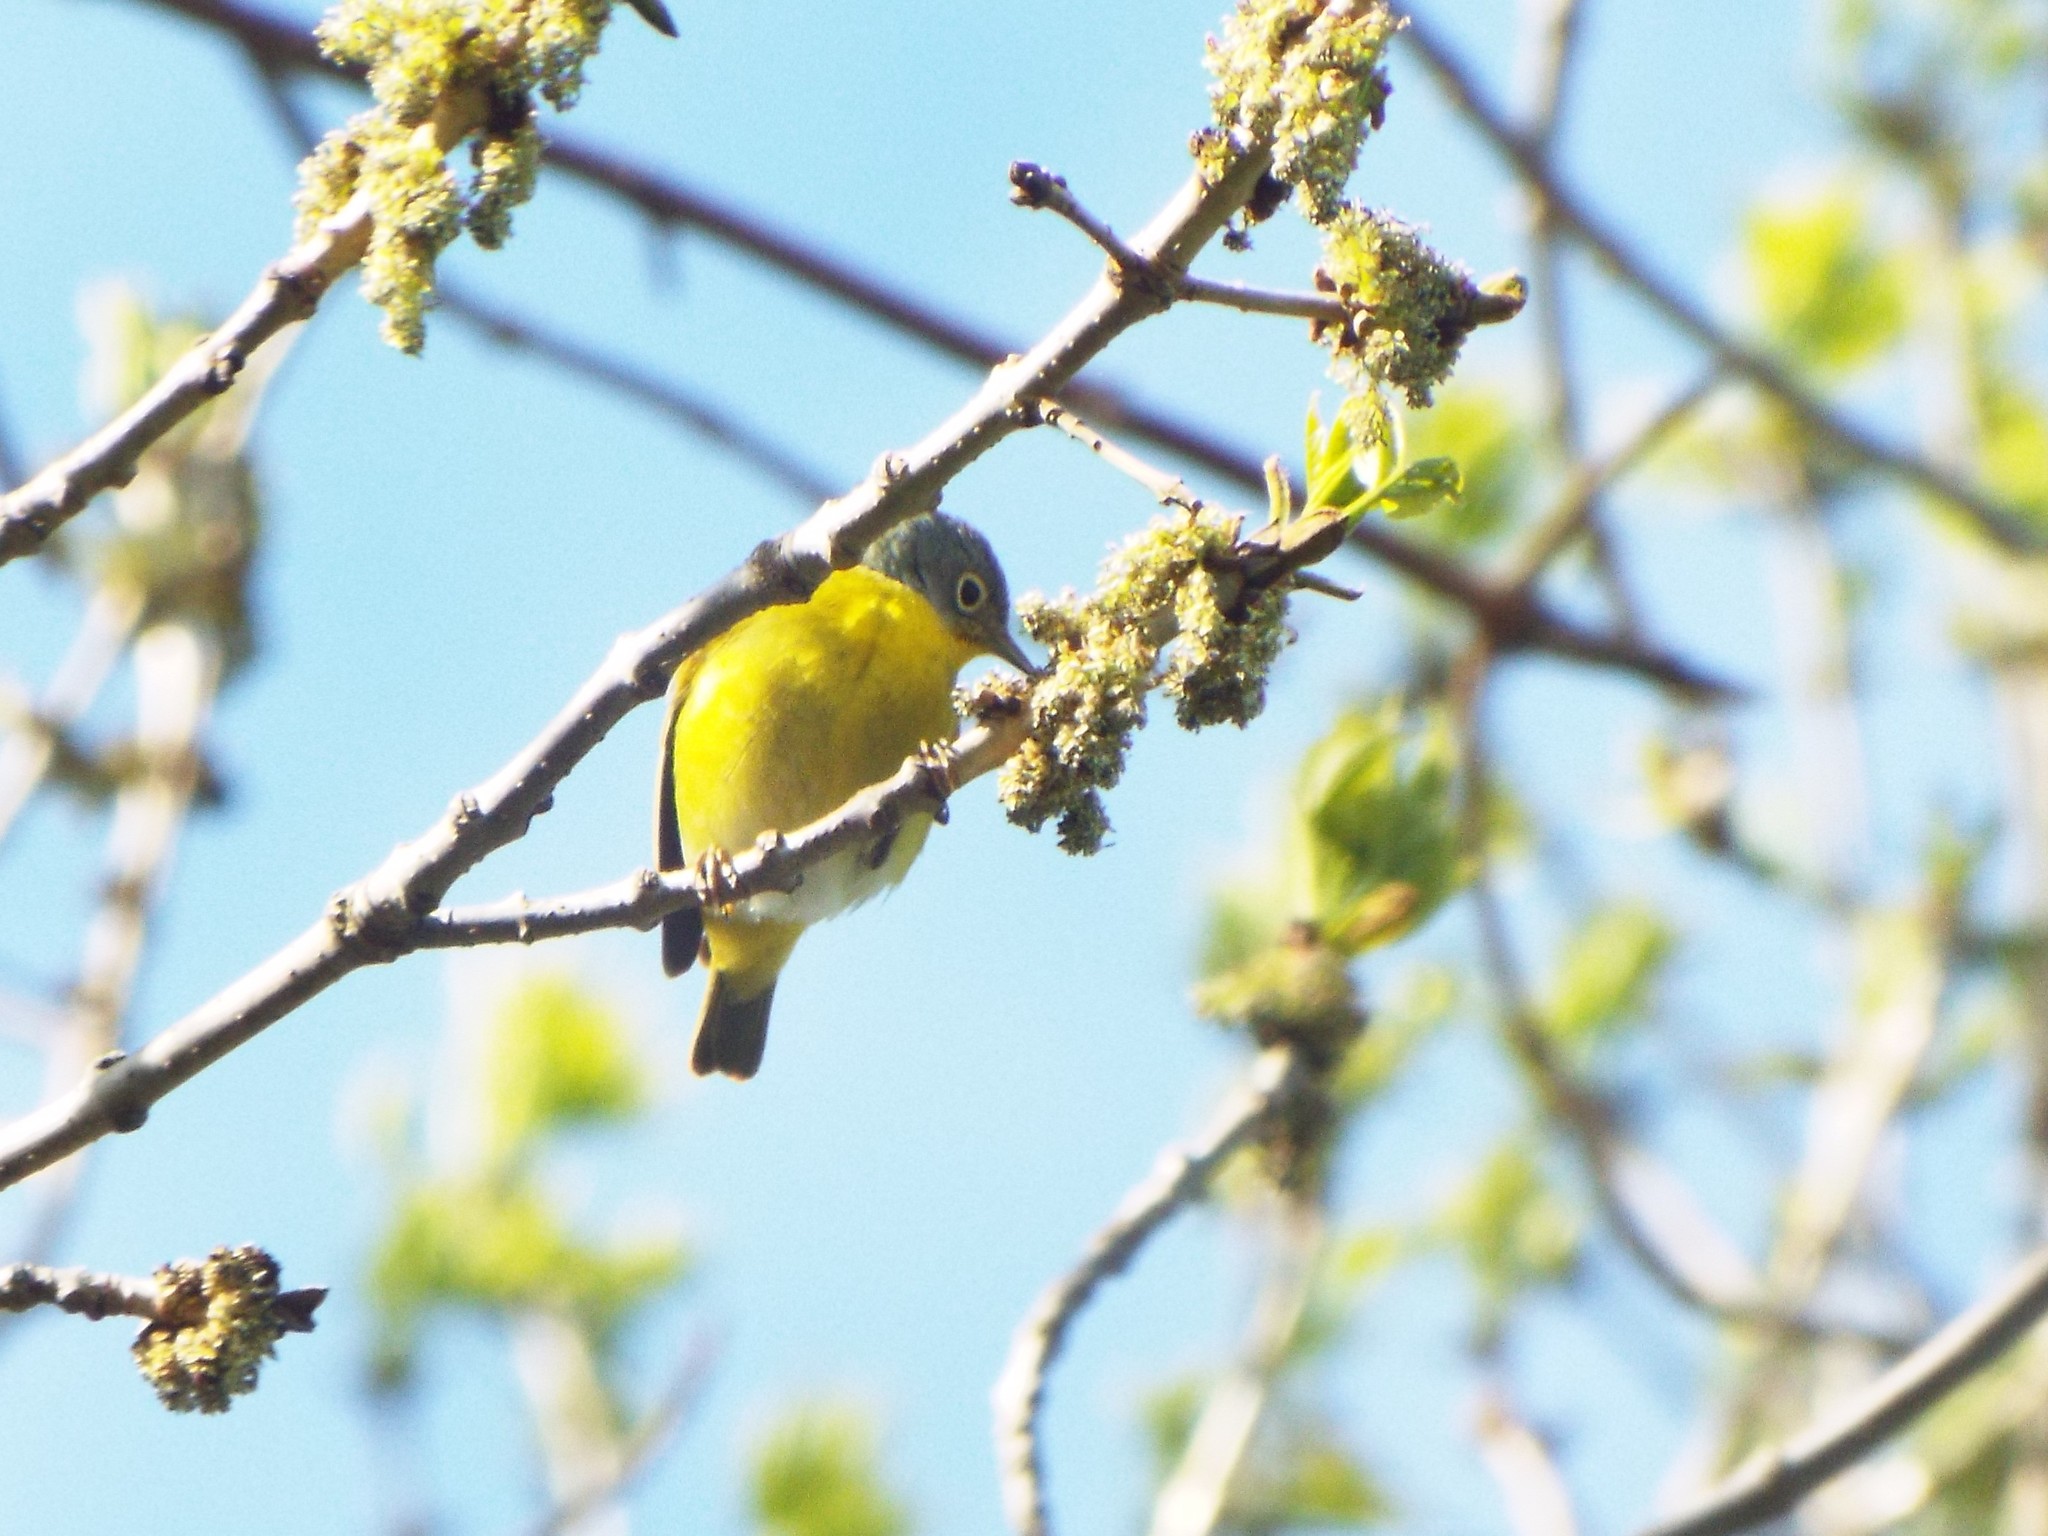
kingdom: Animalia
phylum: Chordata
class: Aves
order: Passeriformes
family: Parulidae
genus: Leiothlypis
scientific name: Leiothlypis ruficapilla
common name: Nashville warbler
